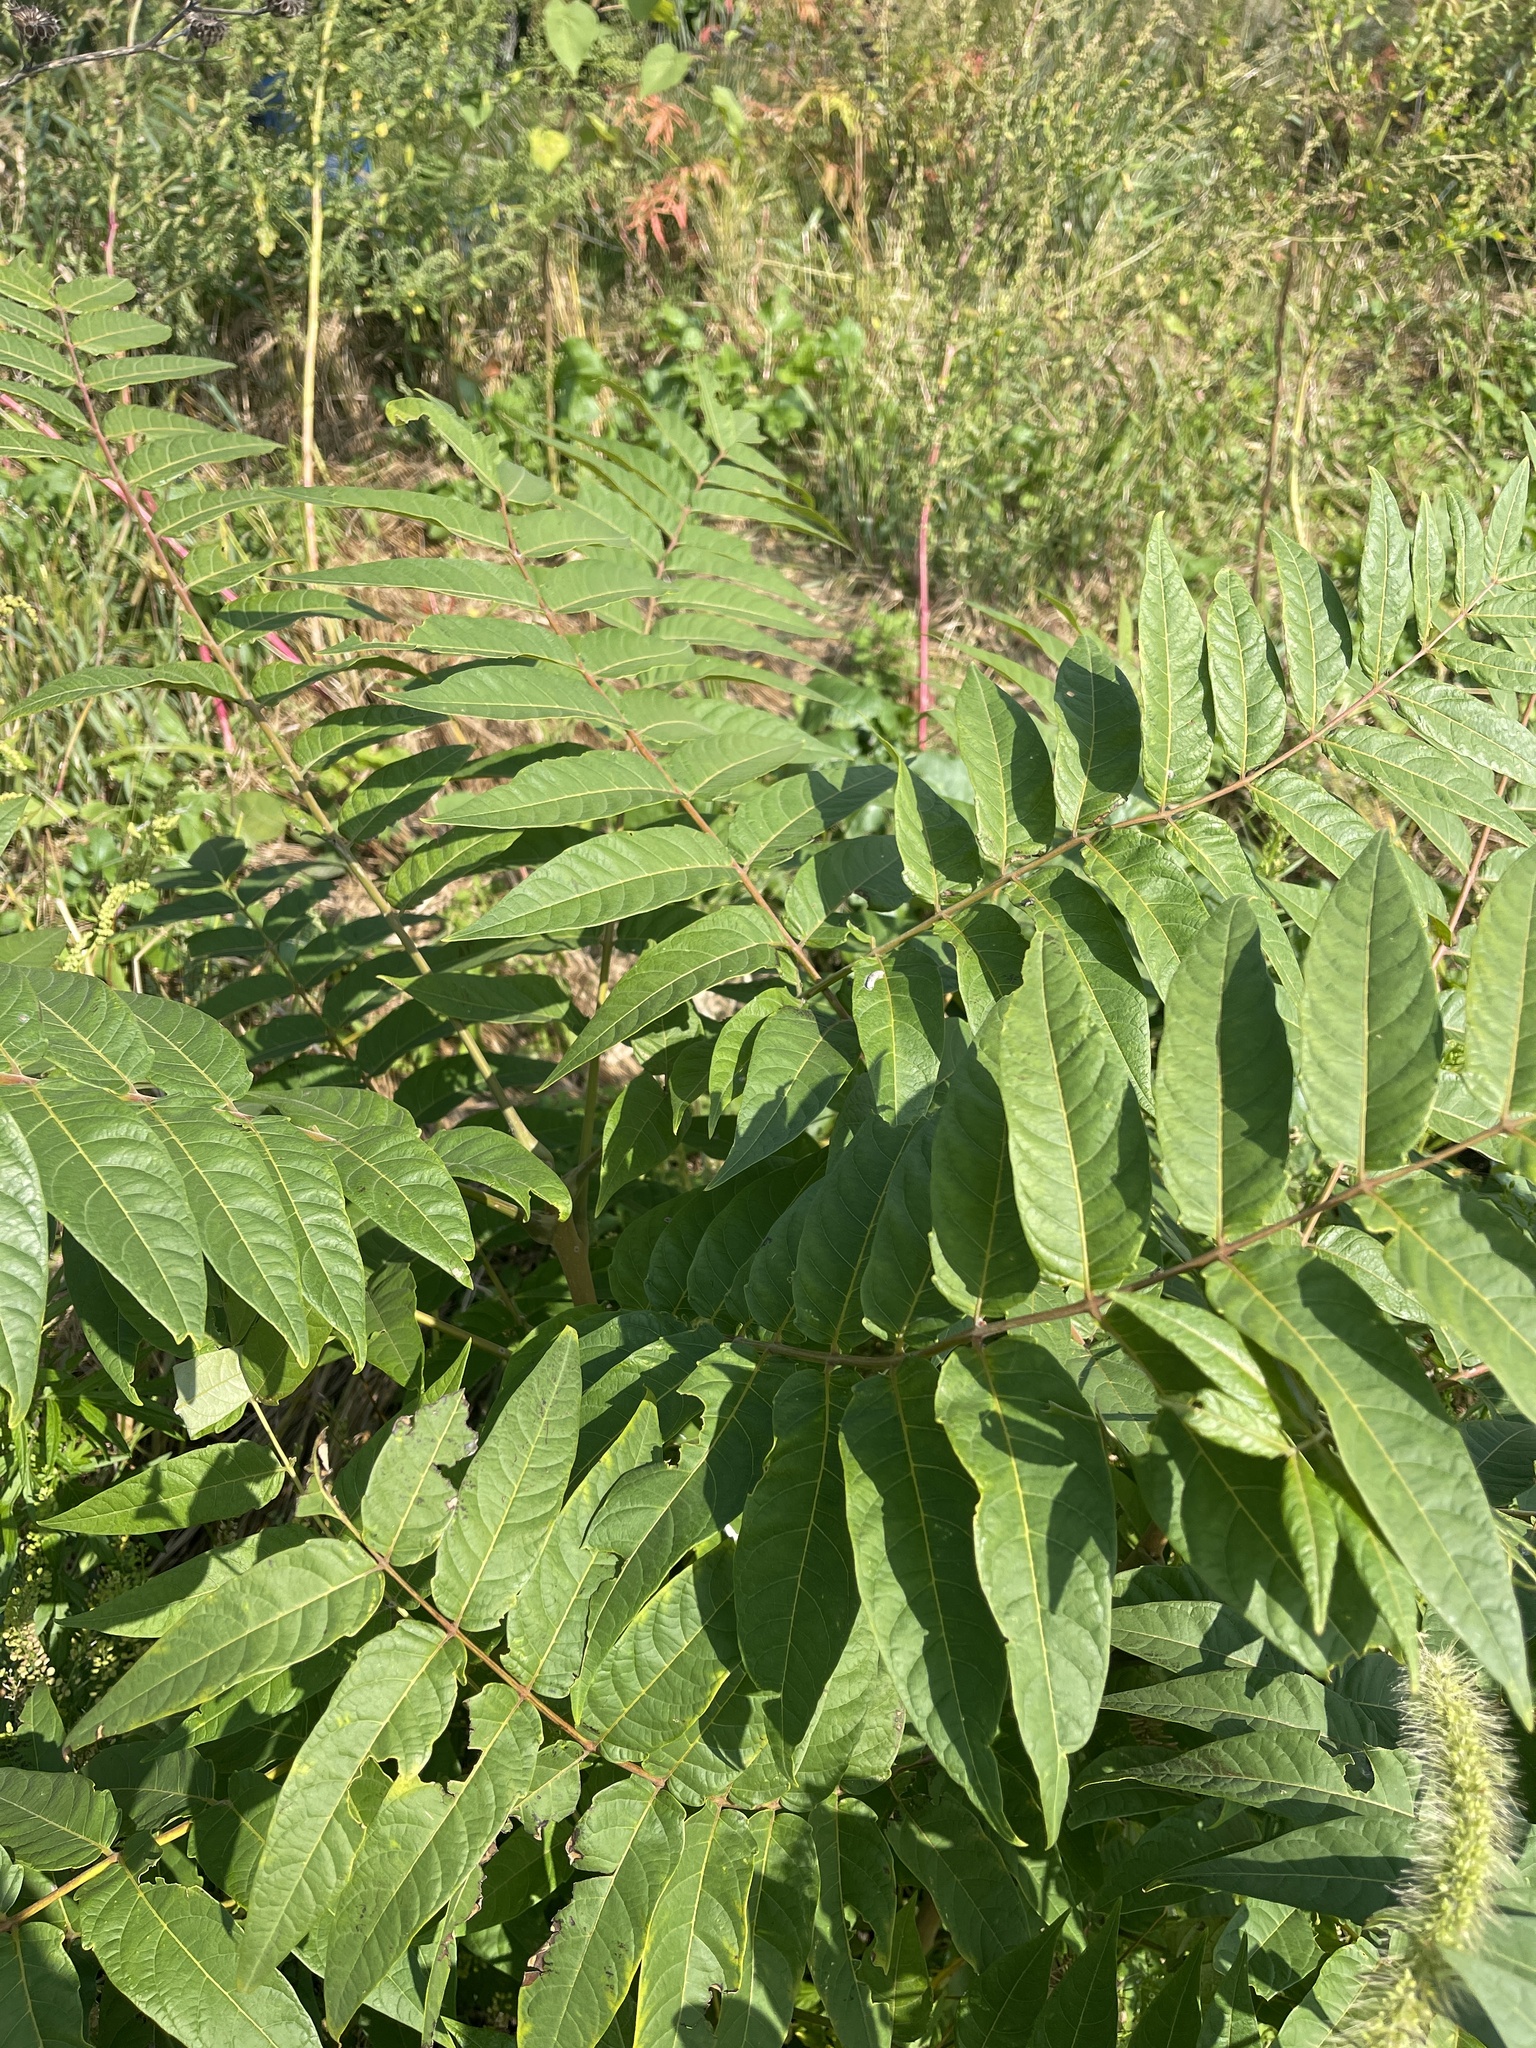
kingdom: Plantae
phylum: Tracheophyta
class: Magnoliopsida
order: Sapindales
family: Simaroubaceae
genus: Ailanthus
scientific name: Ailanthus altissima
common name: Tree-of-heaven
